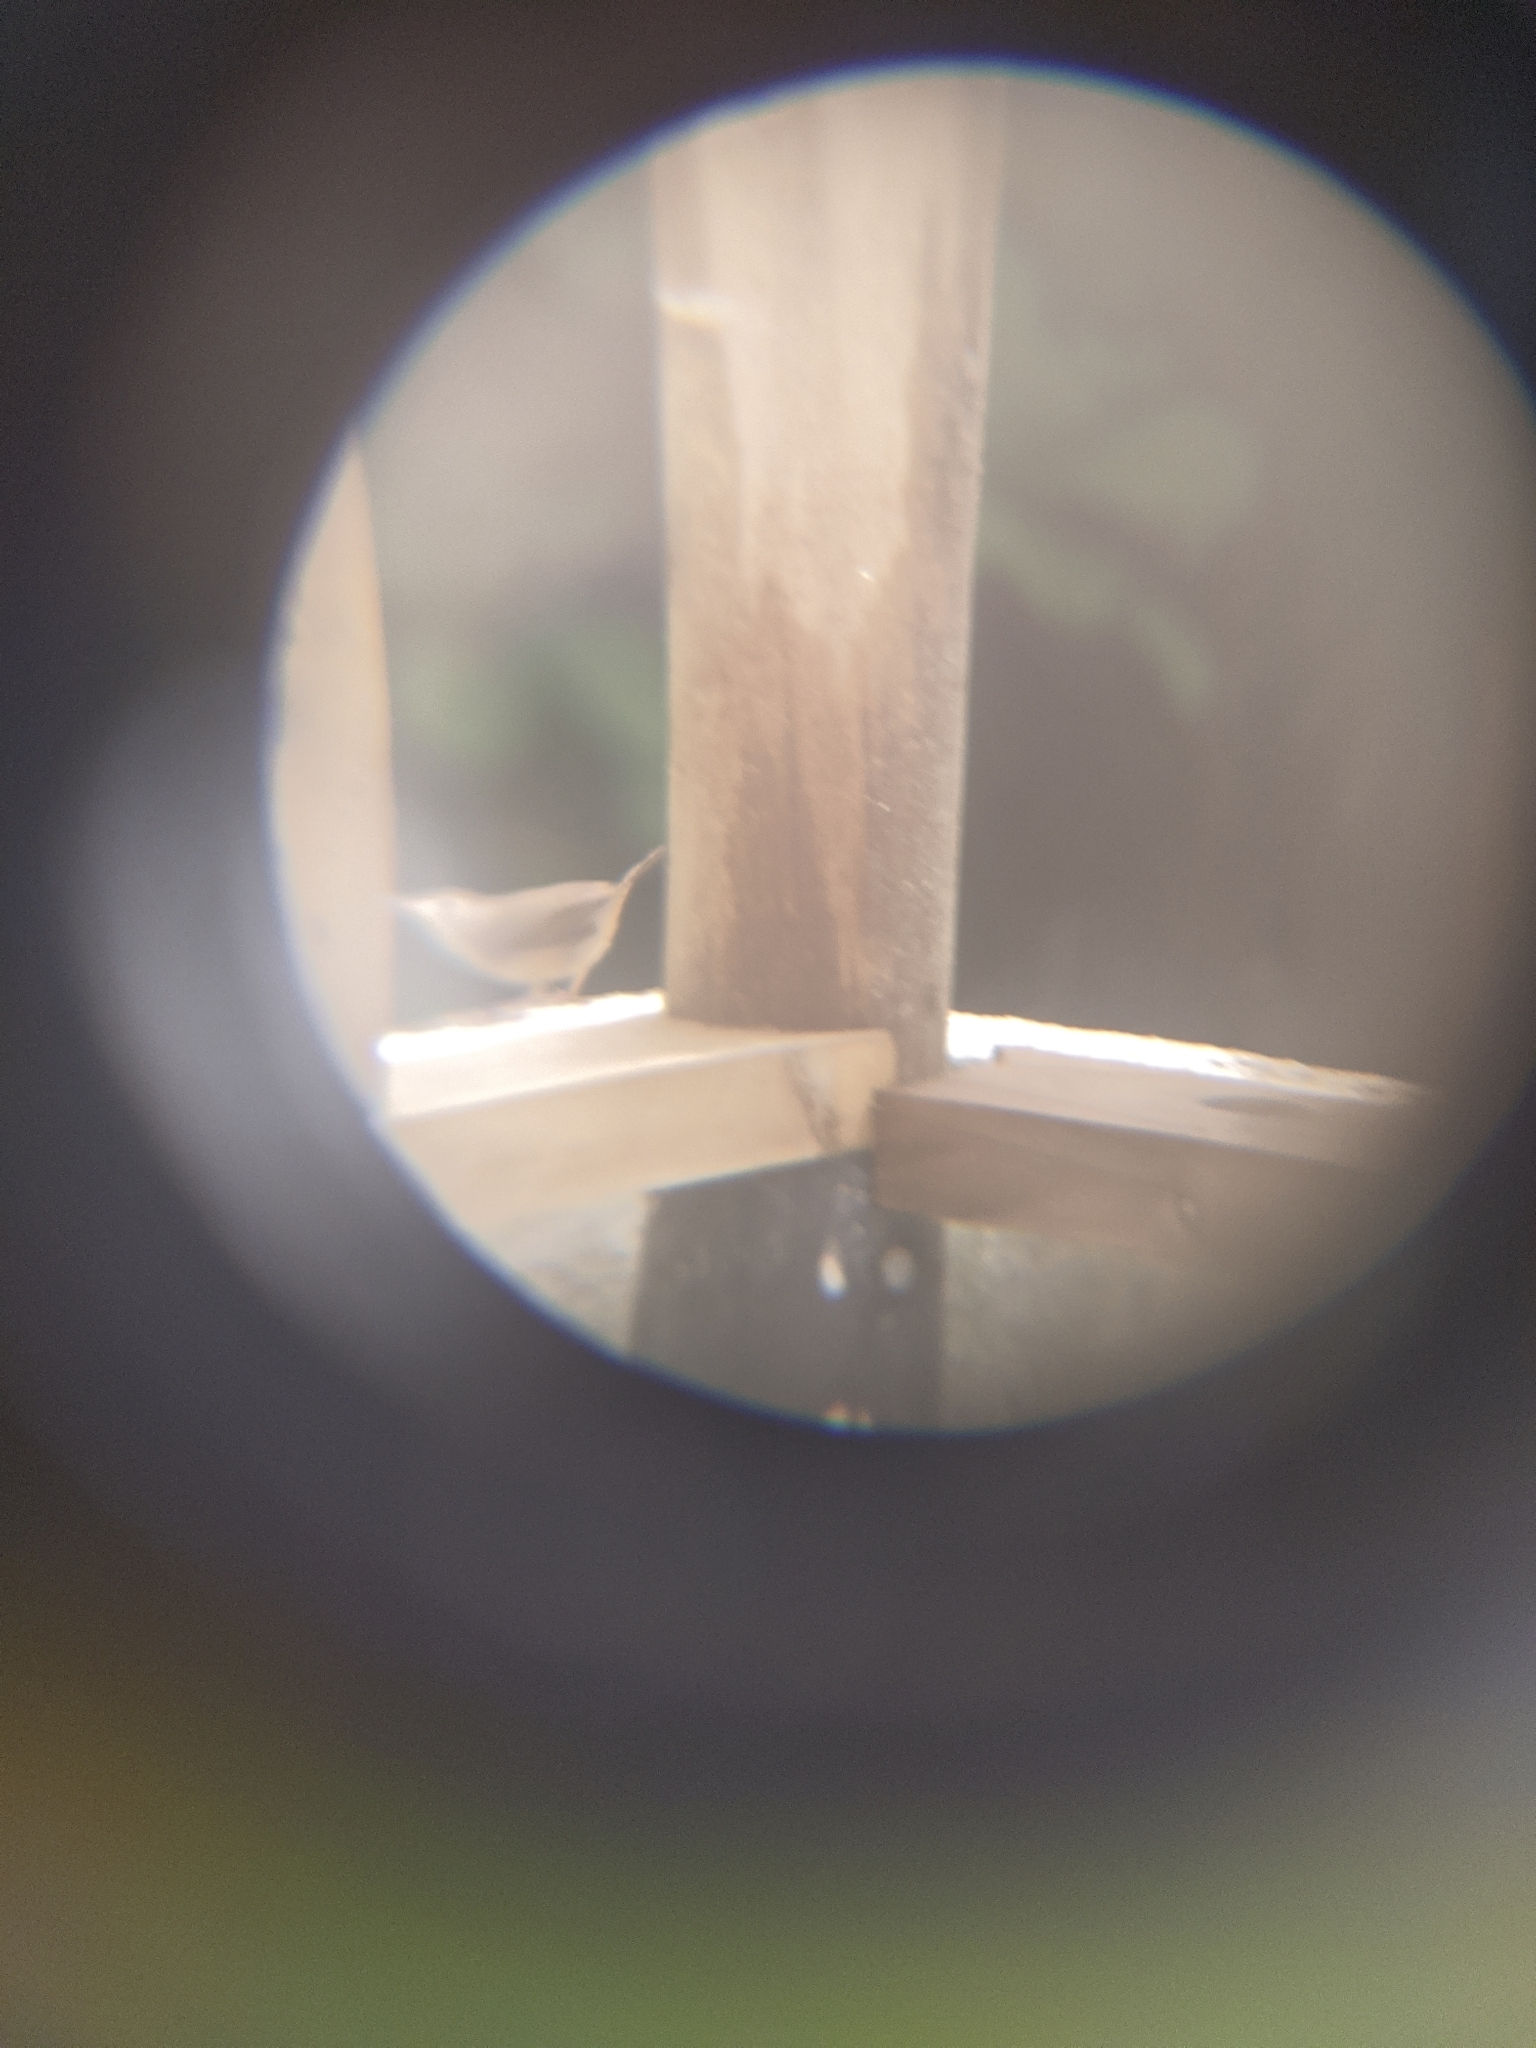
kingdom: Animalia
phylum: Chordata
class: Aves
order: Passeriformes
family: Troglodytidae
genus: Troglodytes
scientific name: Troglodytes aedon
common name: House wren
